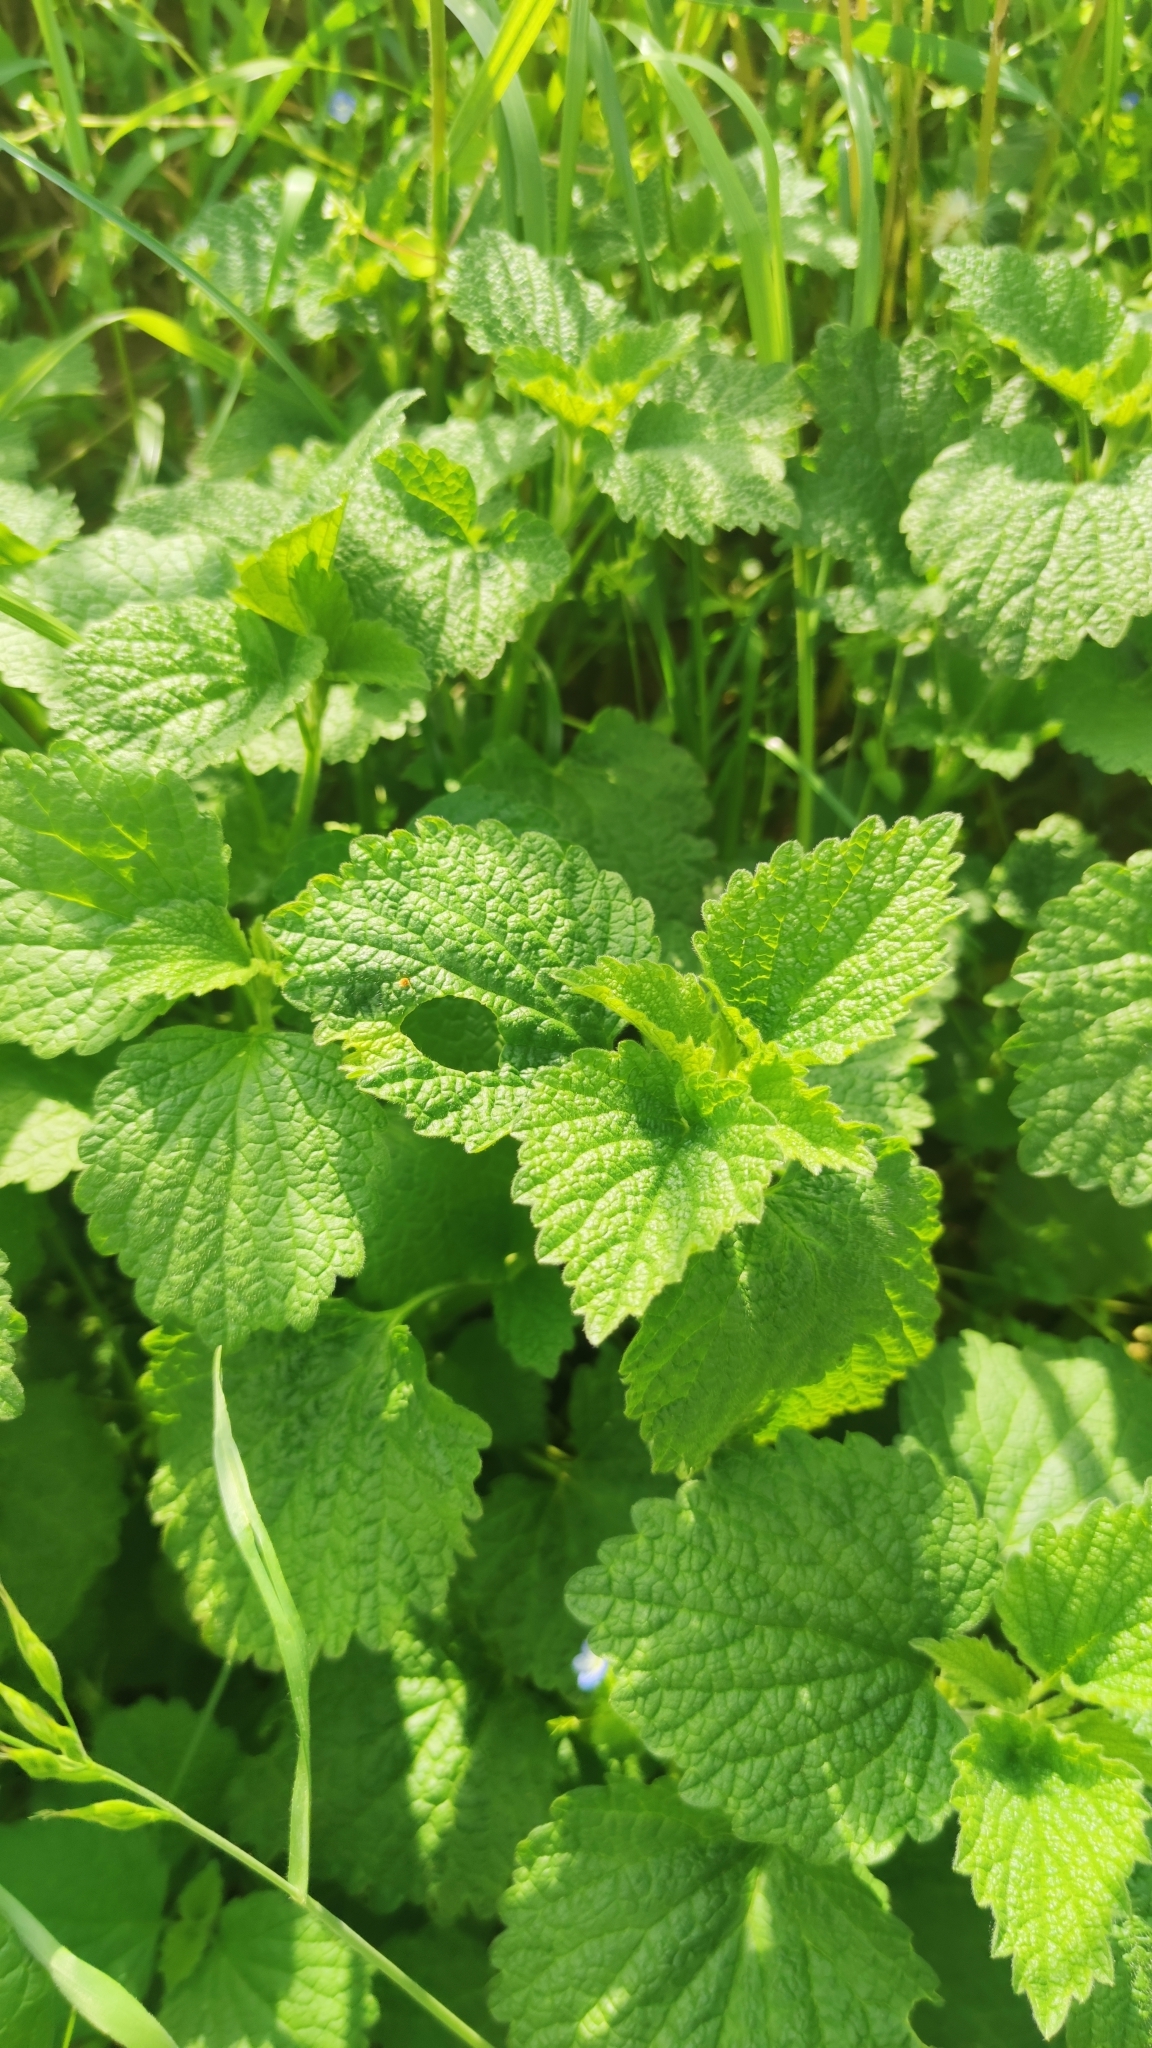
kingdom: Plantae
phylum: Tracheophyta
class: Magnoliopsida
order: Lamiales
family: Lamiaceae
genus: Ballota
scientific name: Ballota nigra
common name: Black horehound
